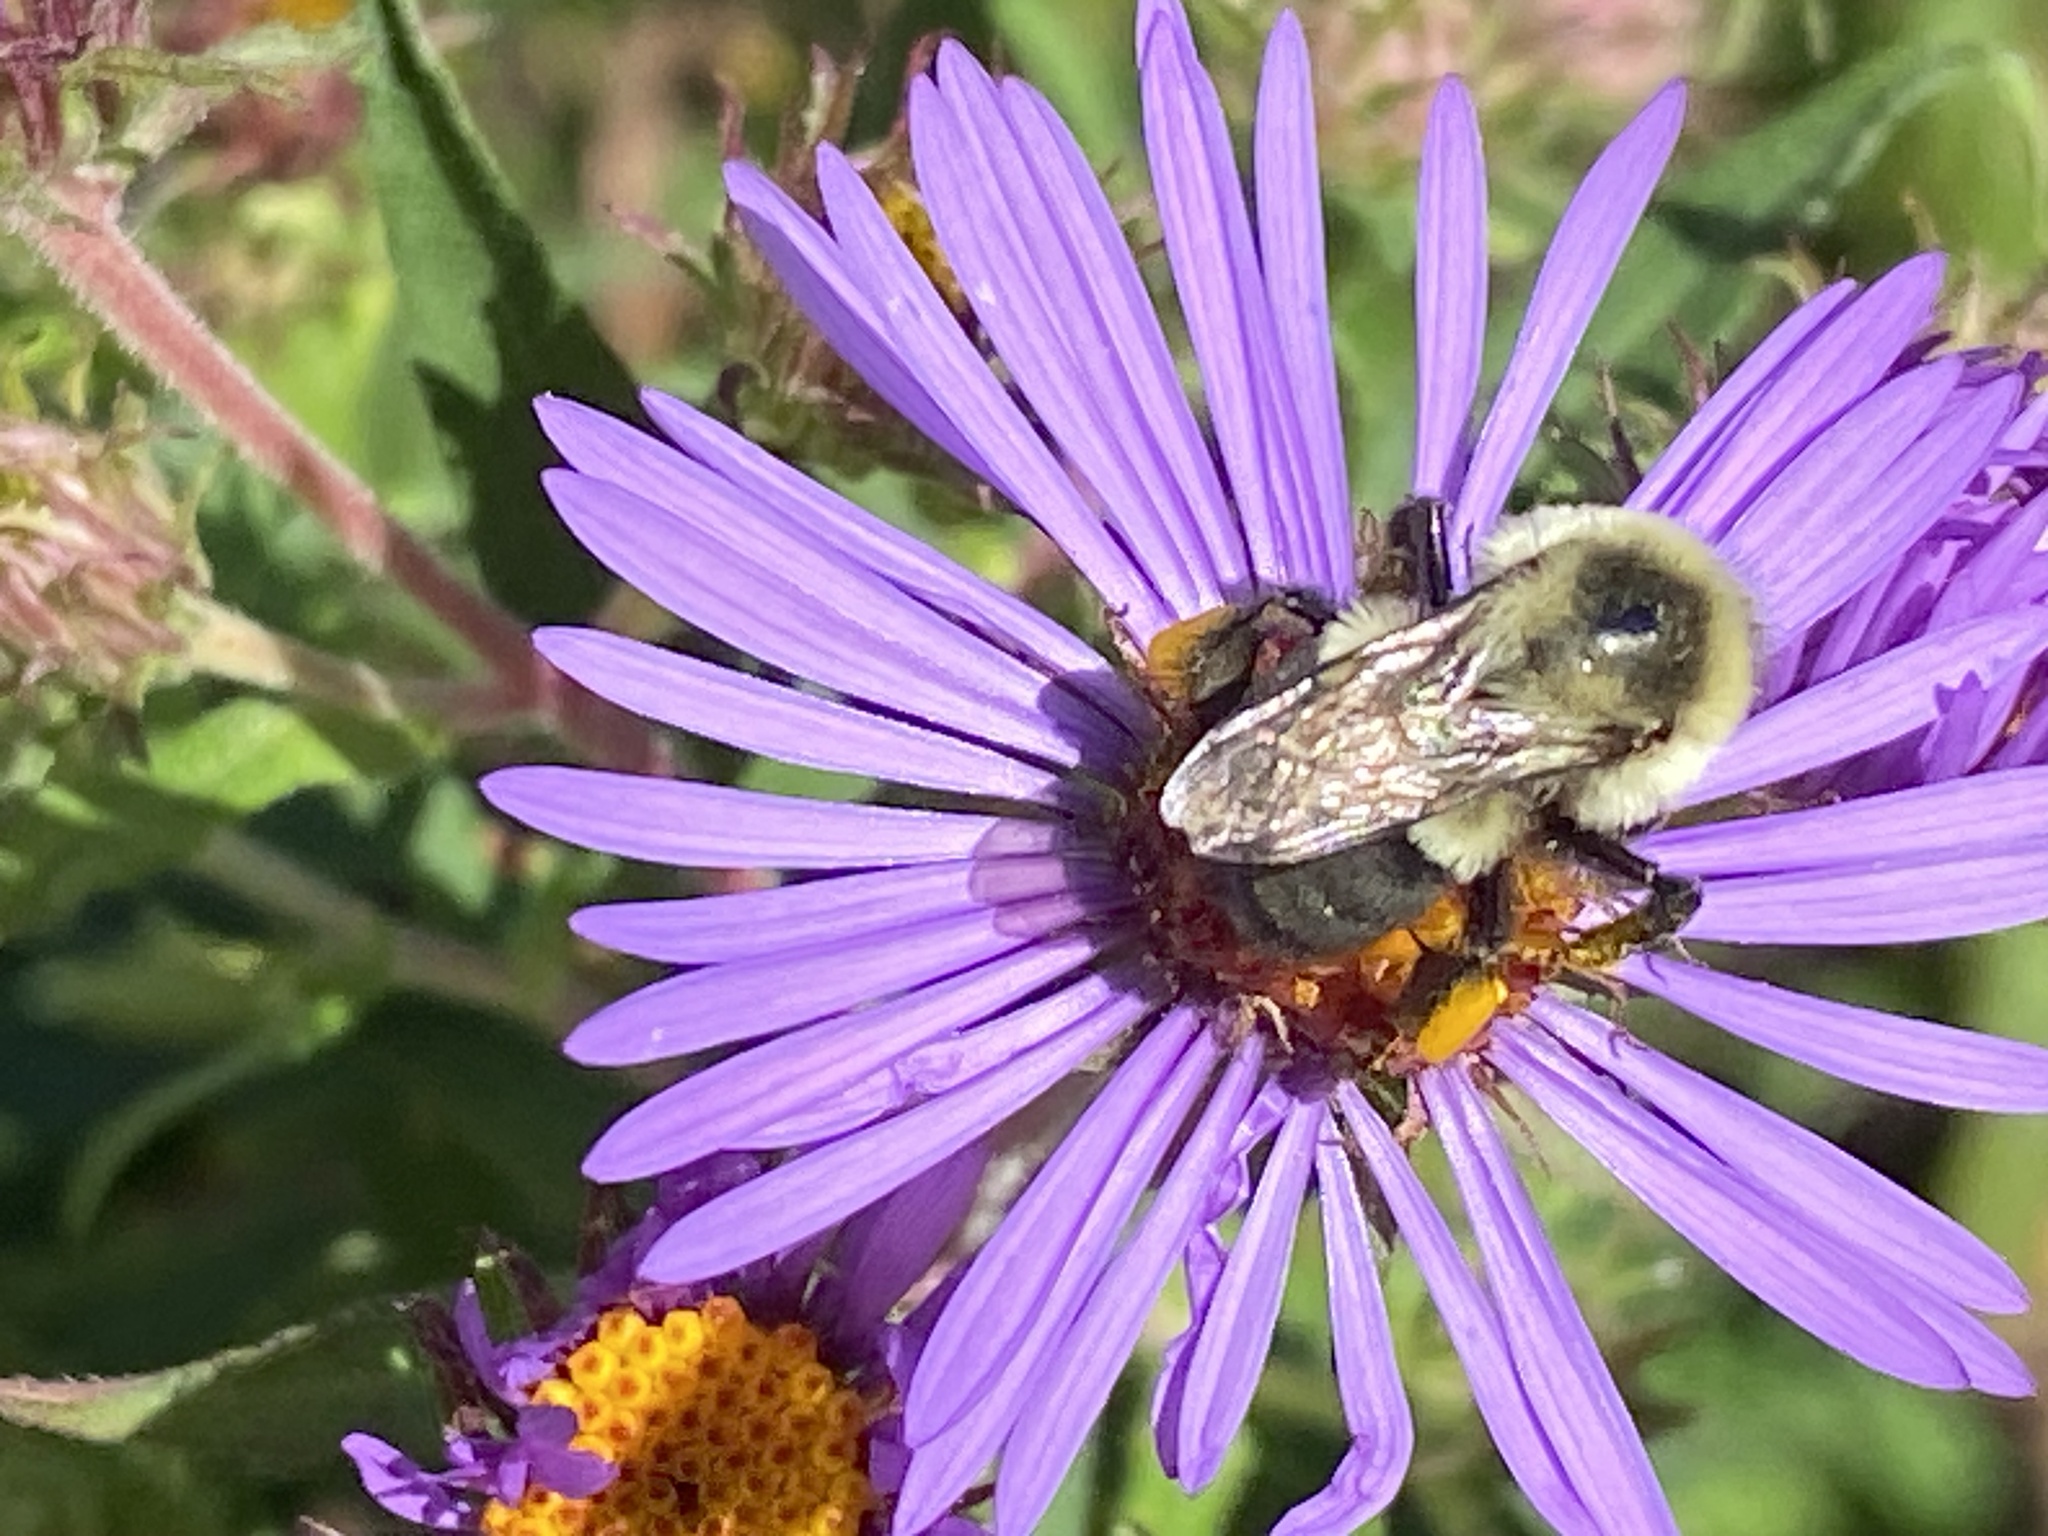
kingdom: Animalia
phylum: Arthropoda
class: Insecta
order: Hymenoptera
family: Apidae
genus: Bombus
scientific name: Bombus impatiens
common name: Common eastern bumble bee
